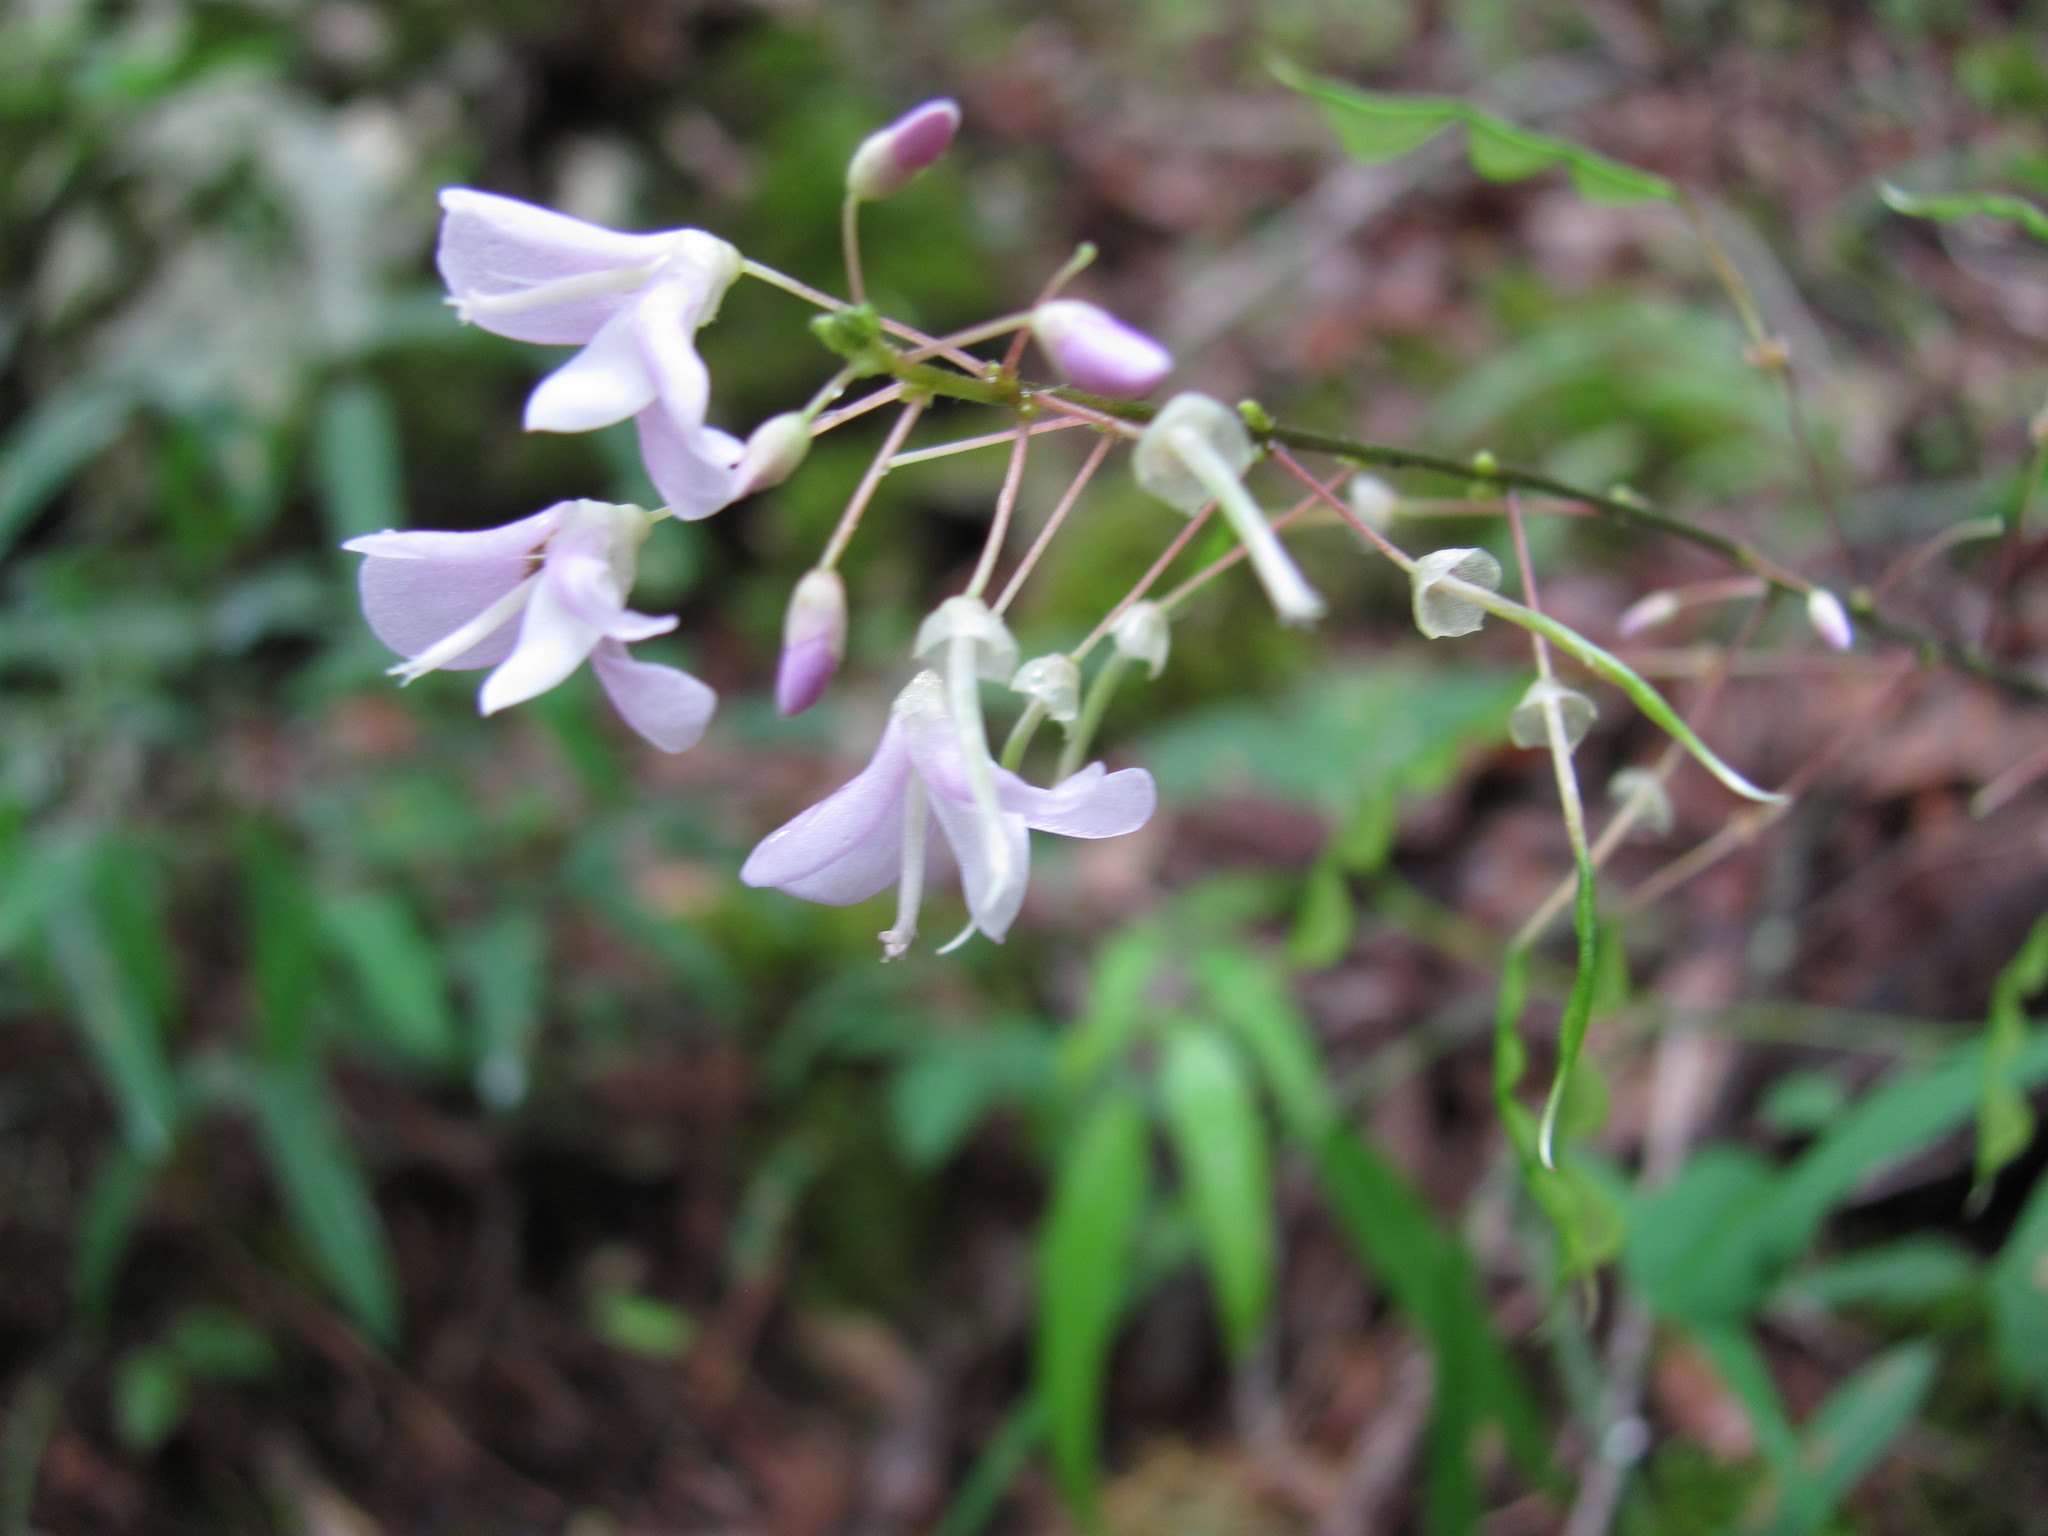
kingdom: Plantae
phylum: Tracheophyta
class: Magnoliopsida
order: Fabales
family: Fabaceae
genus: Hylodesmum
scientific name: Hylodesmum nudiflorum
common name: Bare-stemmed tick-trefoil
